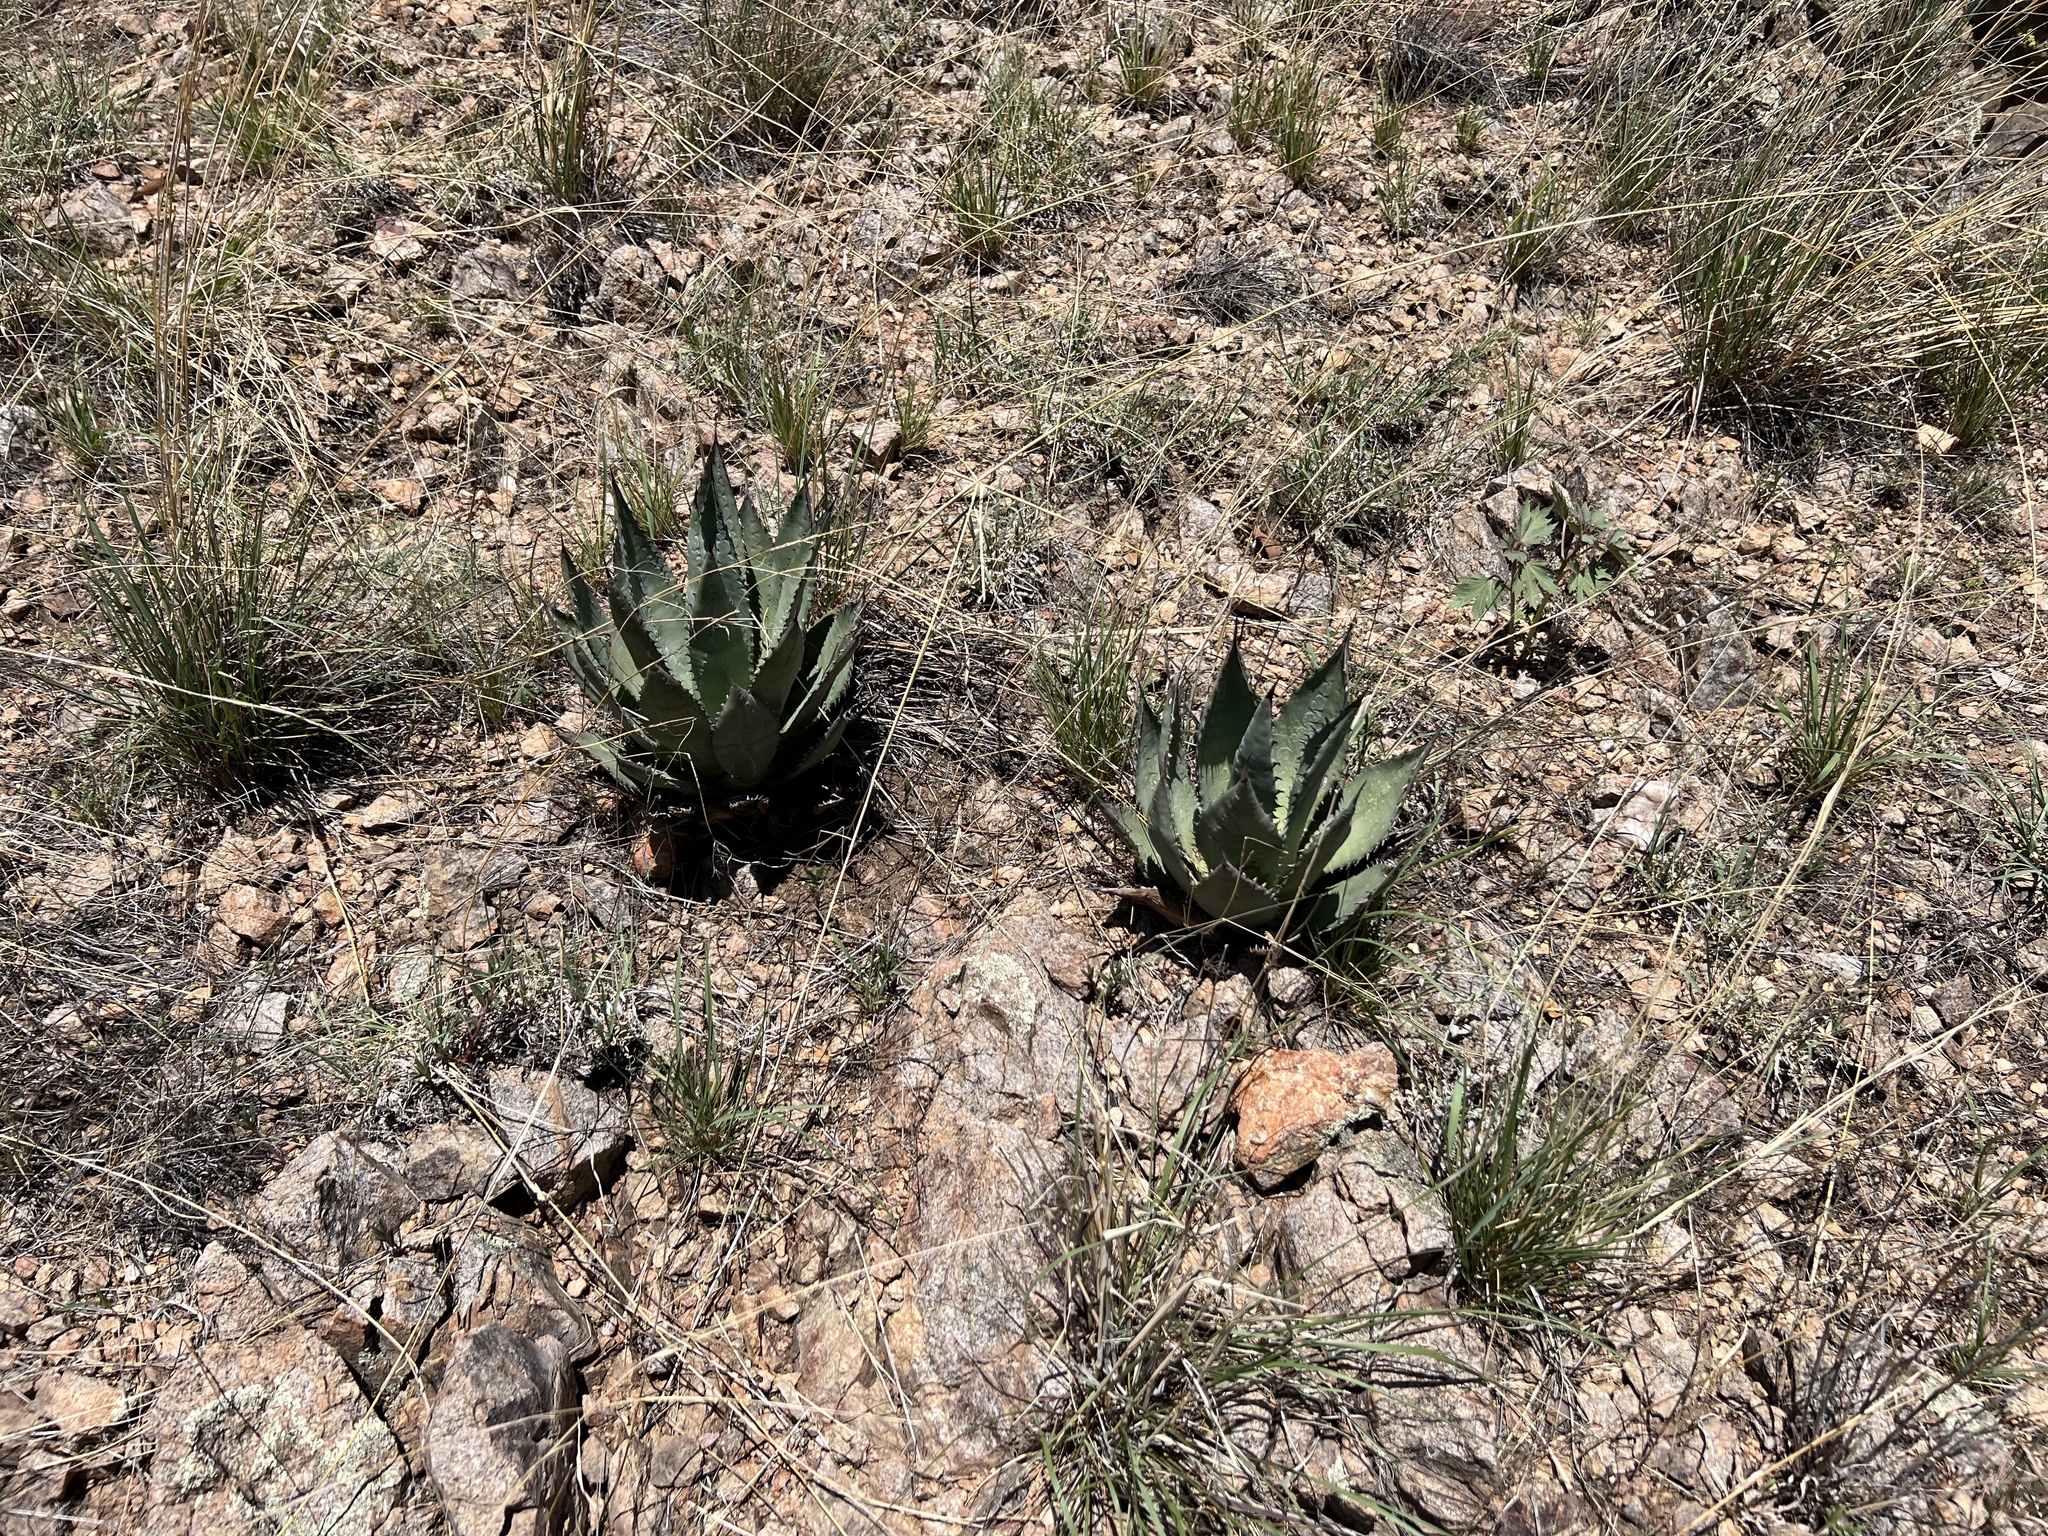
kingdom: Plantae
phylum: Tracheophyta
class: Liliopsida
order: Asparagales
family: Asparagaceae
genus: Agave
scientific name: Agave palmeri
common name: Palmer agave
